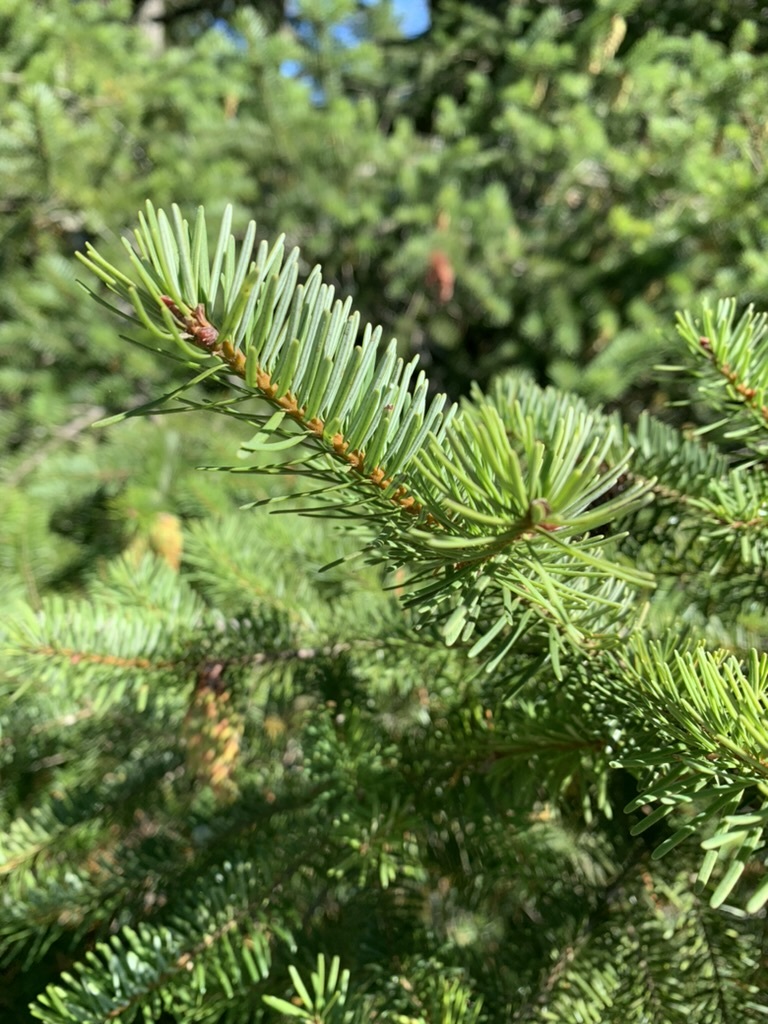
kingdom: Plantae
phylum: Tracheophyta
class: Pinopsida
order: Pinales
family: Pinaceae
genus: Pseudotsuga
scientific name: Pseudotsuga menziesii
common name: Douglas fir
